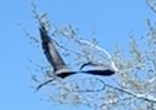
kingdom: Animalia
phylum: Chordata
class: Aves
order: Pelecaniformes
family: Ardeidae
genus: Ardea
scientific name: Ardea herodias
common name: Great blue heron
